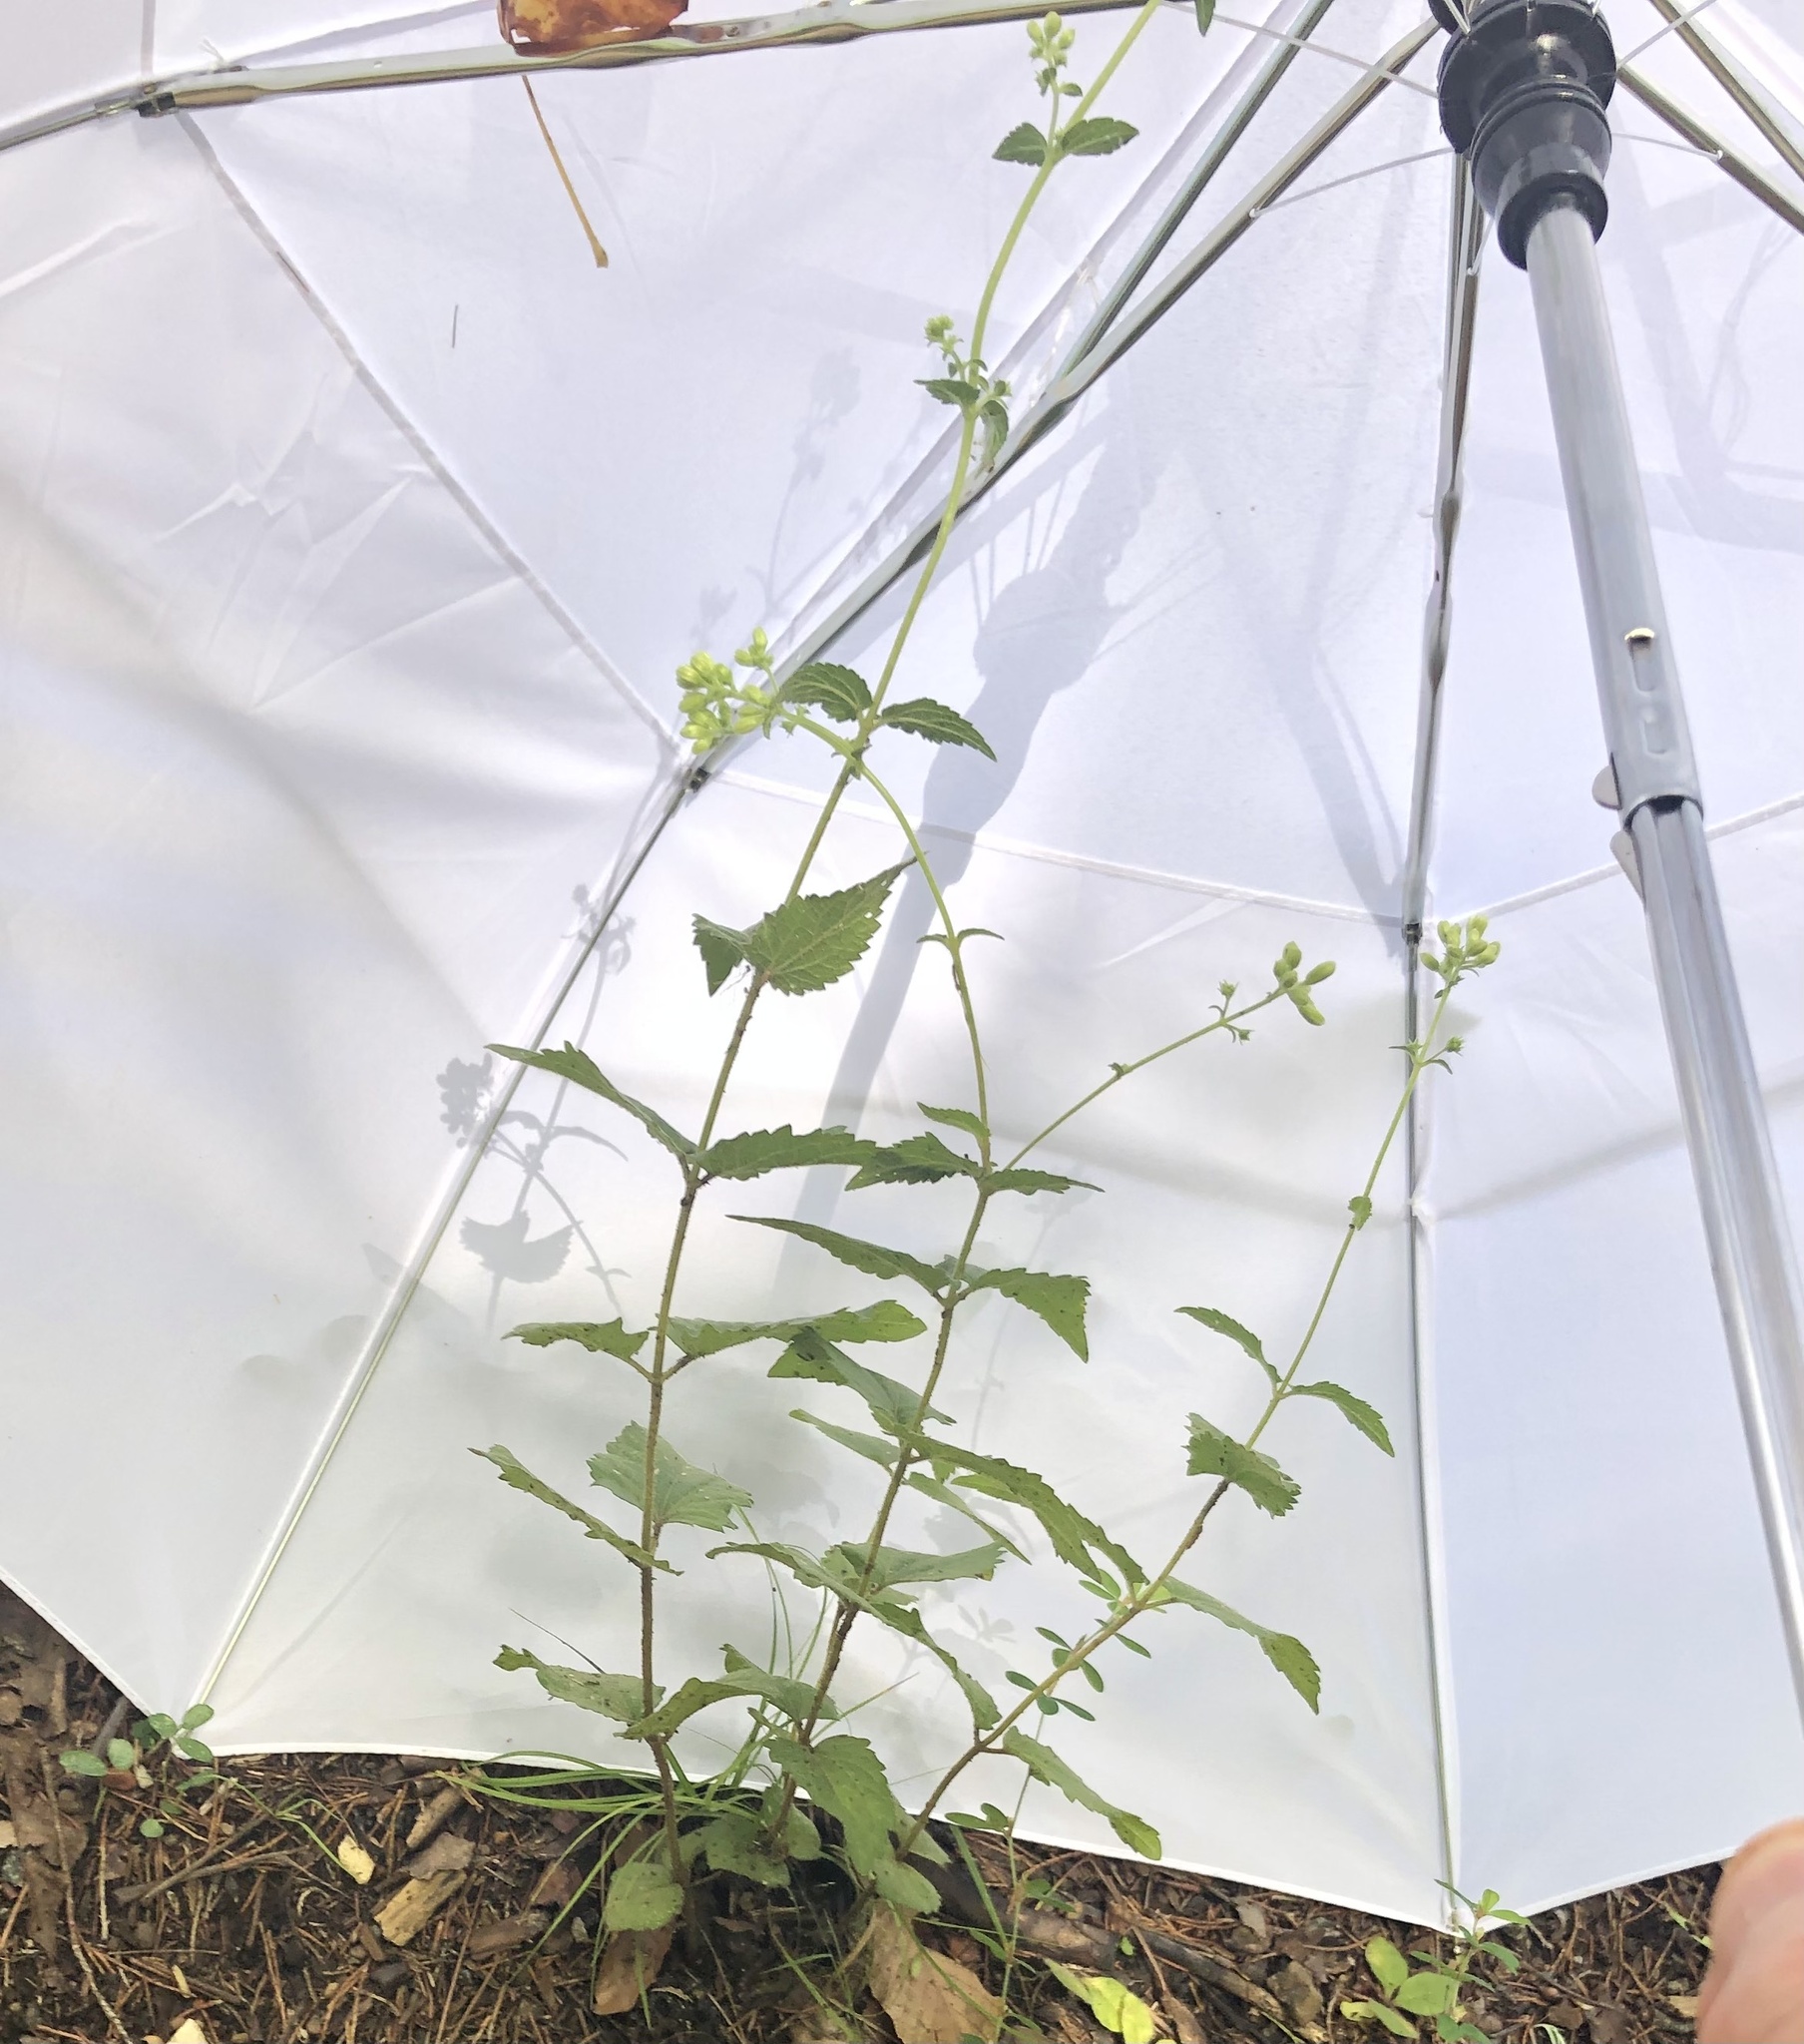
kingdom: Plantae
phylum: Tracheophyta
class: Magnoliopsida
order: Asterales
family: Asteraceae
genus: Ageratina
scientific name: Ageratina aromatica
